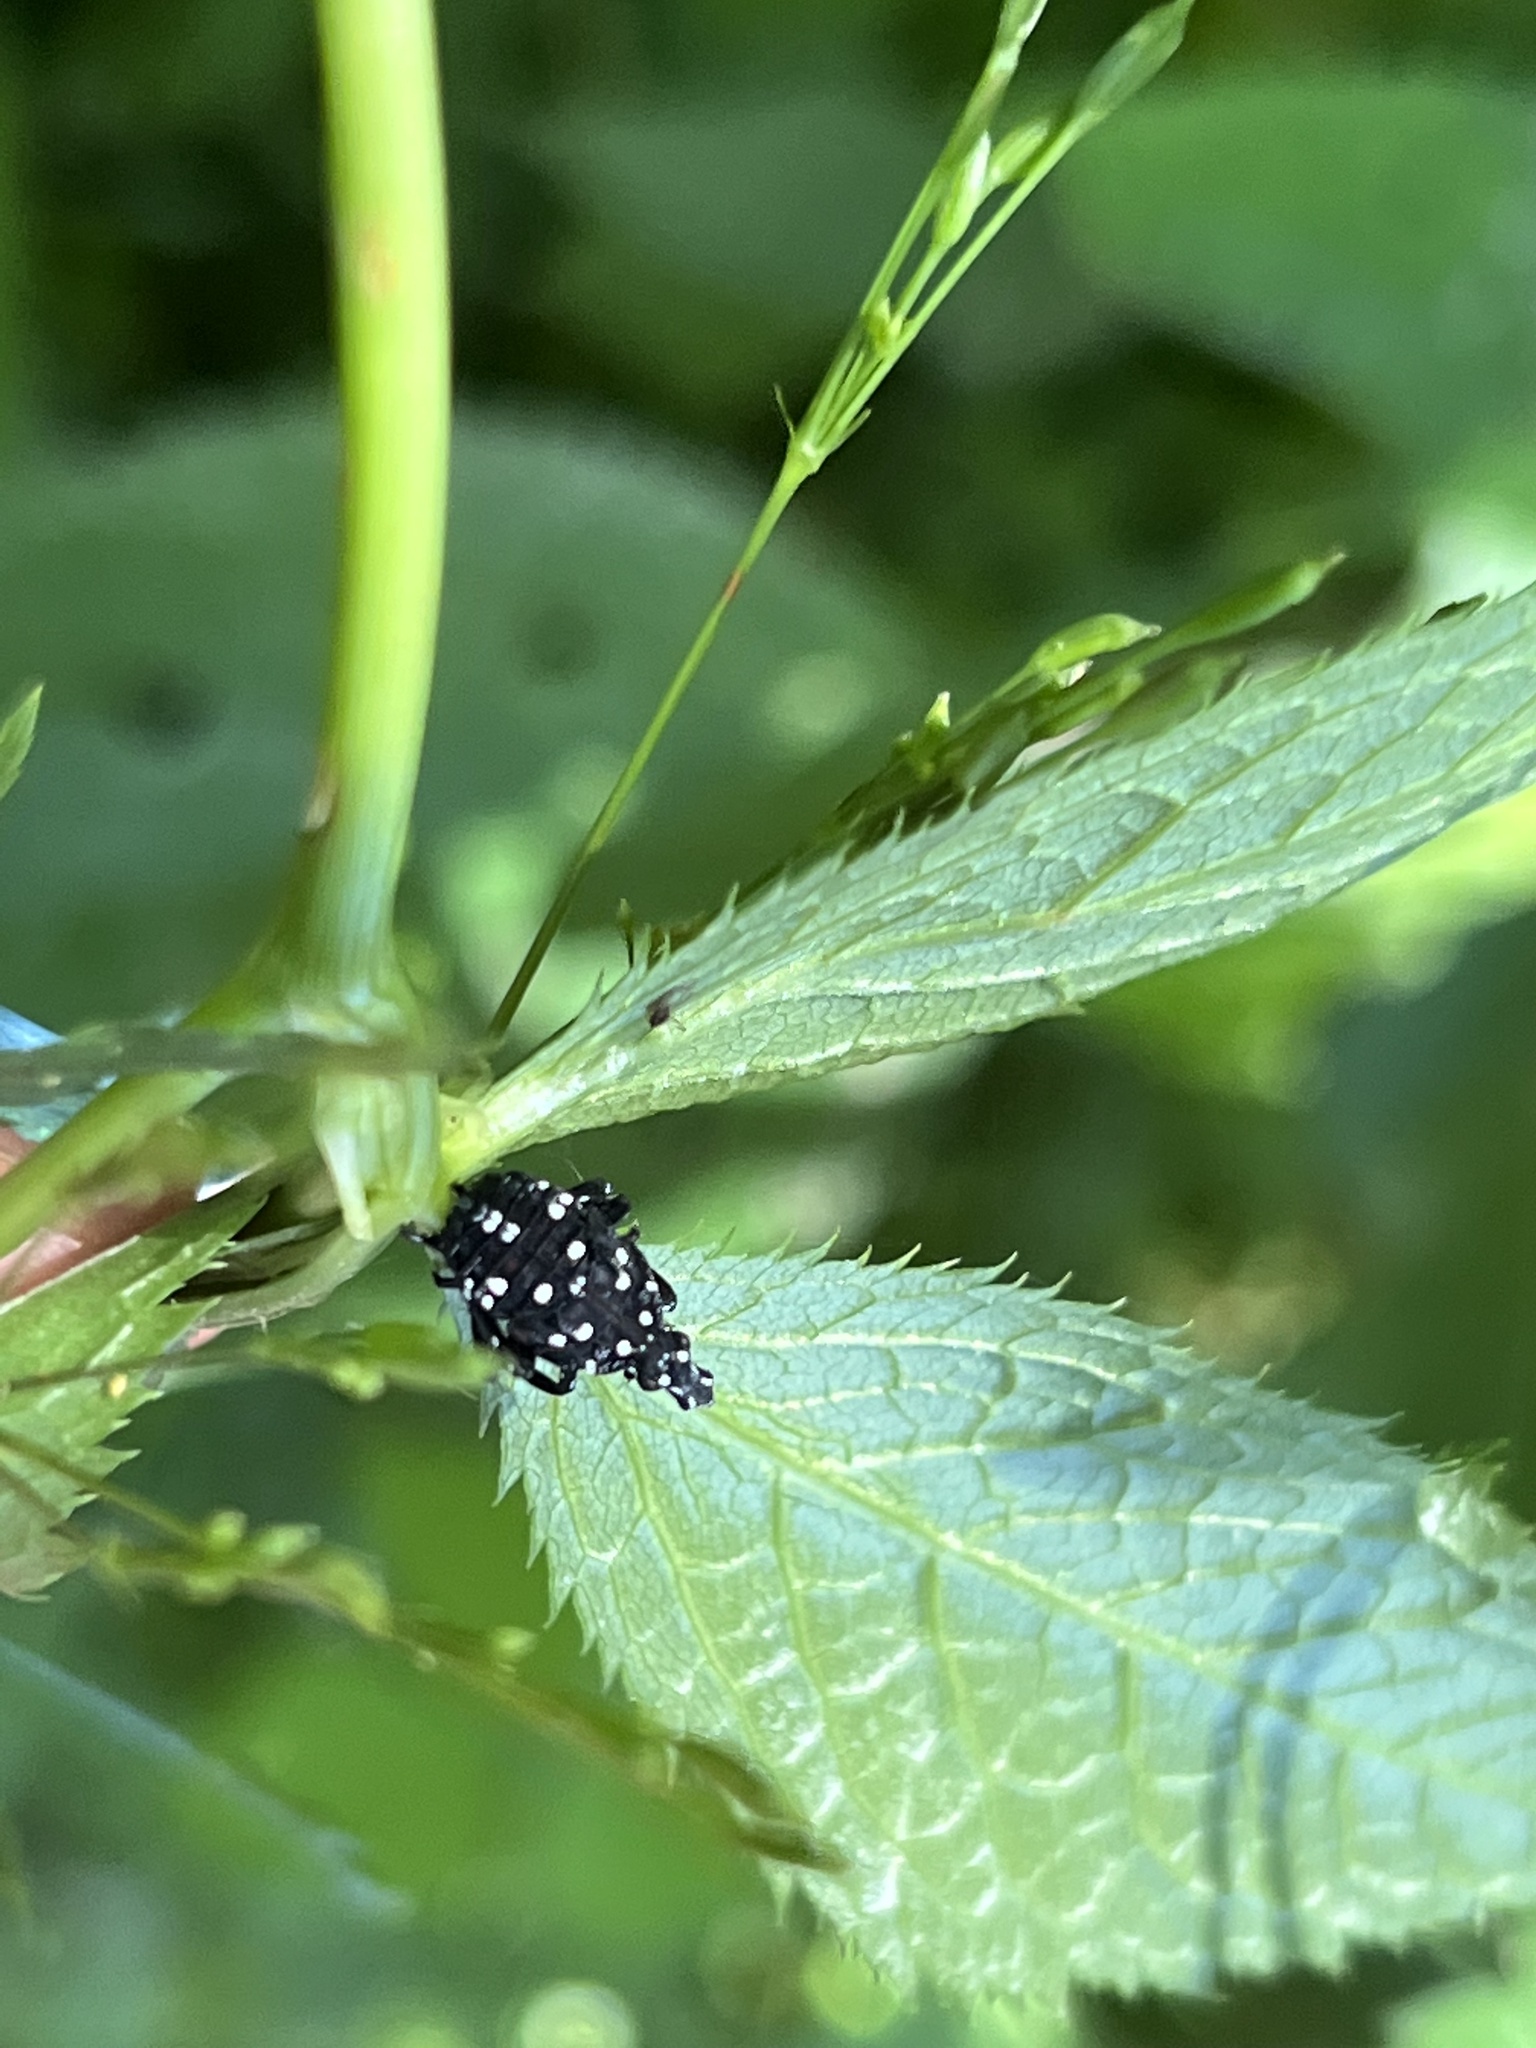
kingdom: Animalia
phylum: Arthropoda
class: Insecta
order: Hemiptera
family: Fulgoridae
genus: Lycorma
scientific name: Lycorma delicatula
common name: Spotted lanternfly
